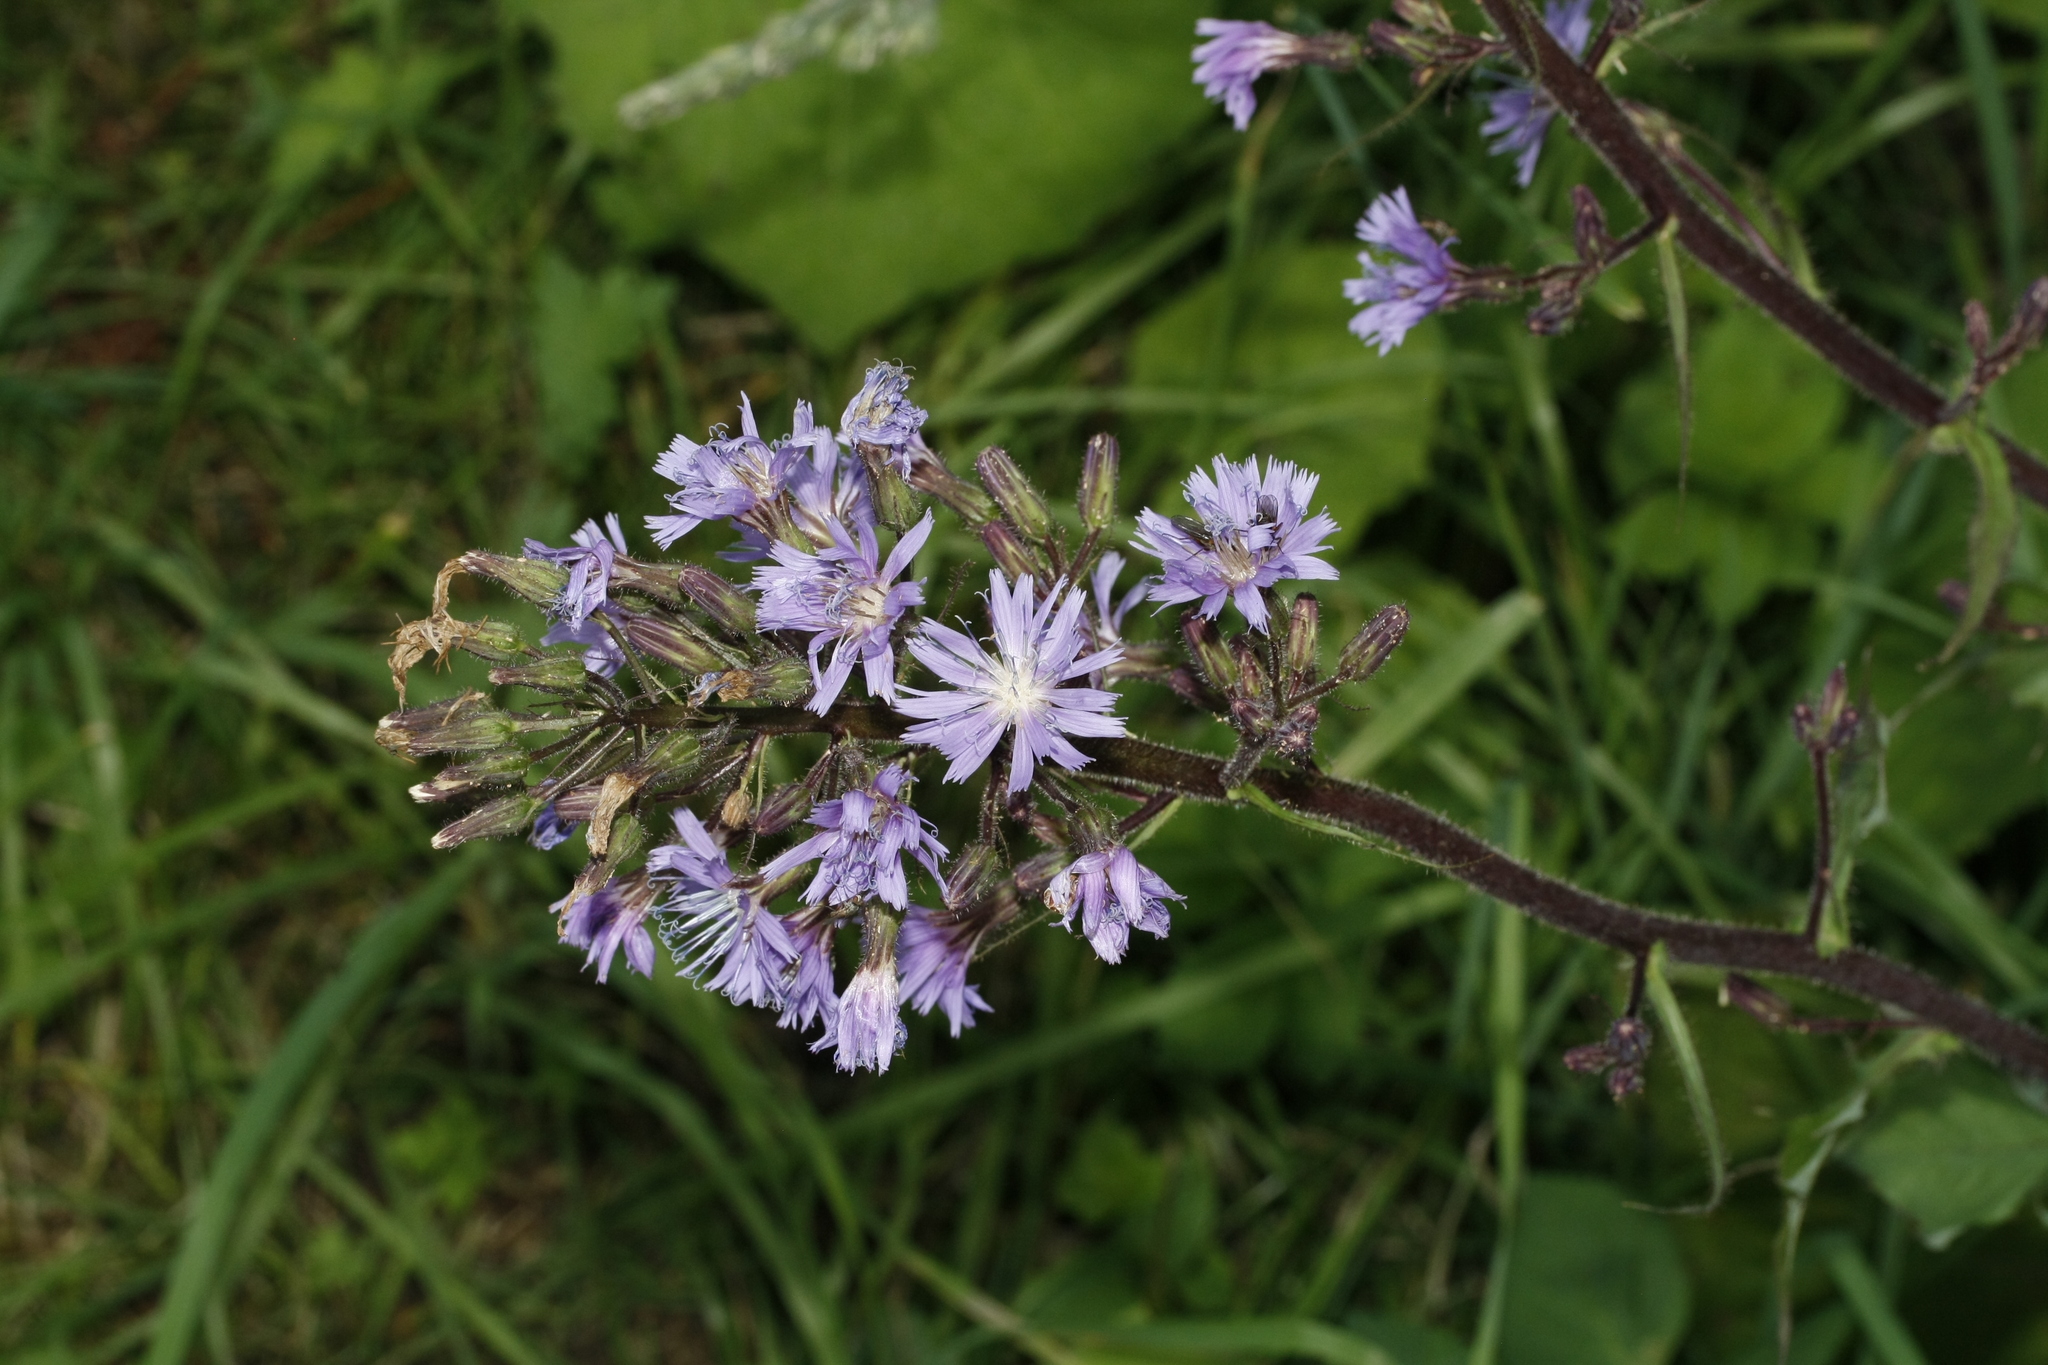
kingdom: Plantae
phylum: Tracheophyta
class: Magnoliopsida
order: Asterales
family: Asteraceae
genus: Cicerbita
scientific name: Cicerbita alpina
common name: Alpine blue-sow-thistle
